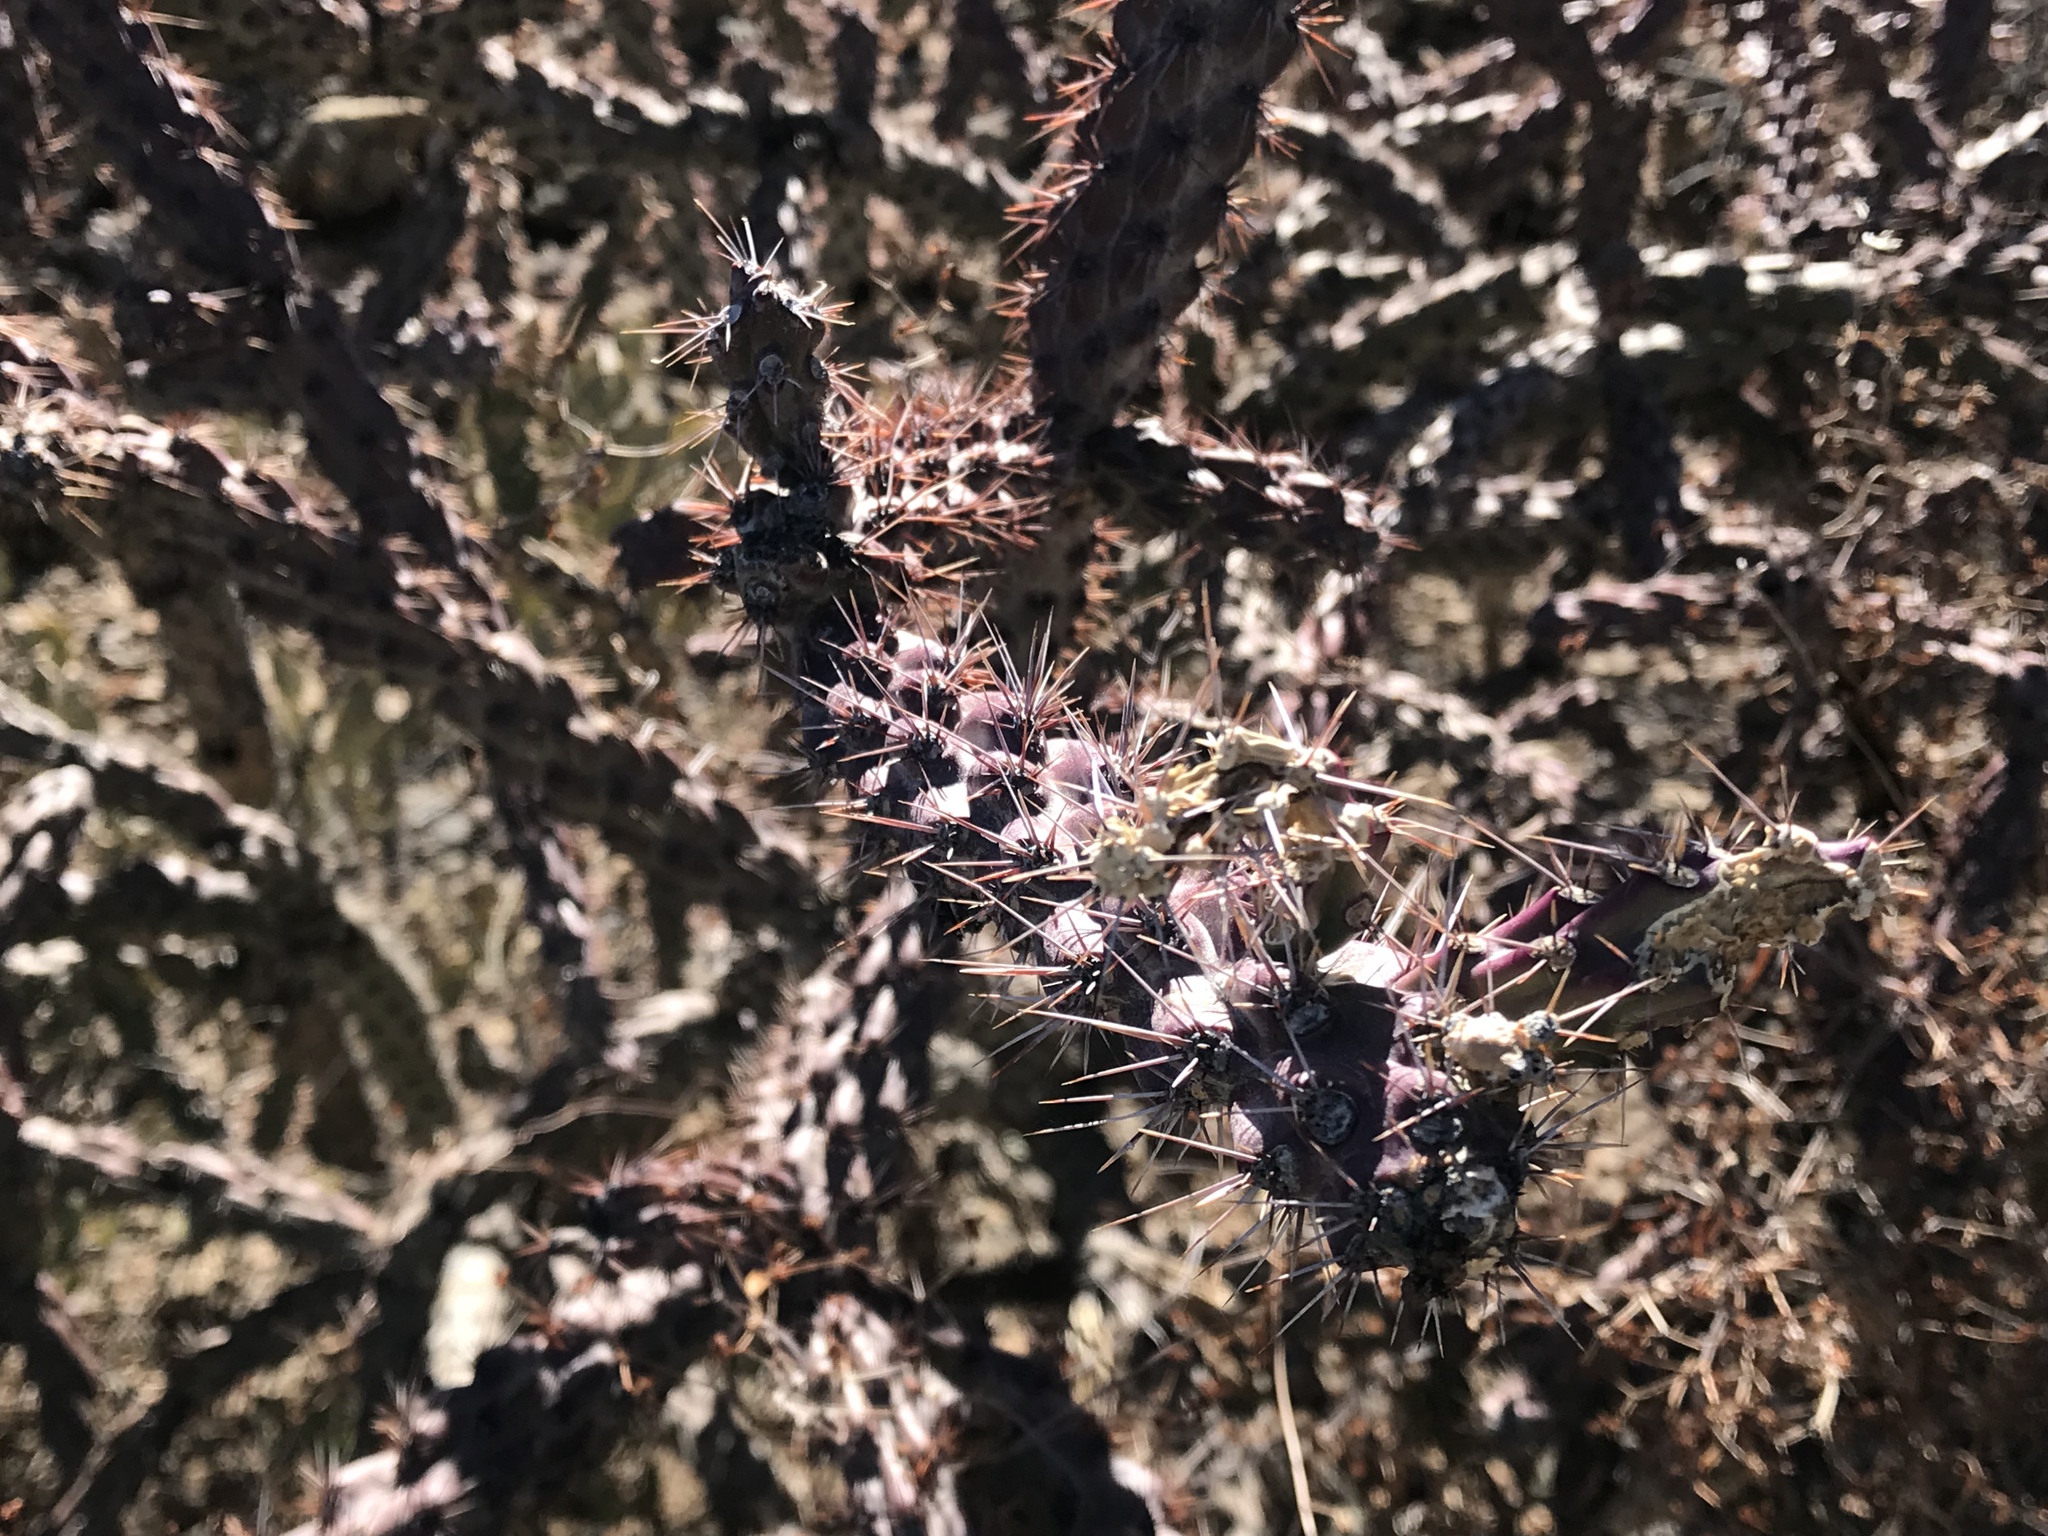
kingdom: Plantae
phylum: Tracheophyta
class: Magnoliopsida
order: Caryophyllales
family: Cactaceae
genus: Cylindropuntia
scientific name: Cylindropuntia thurberi
